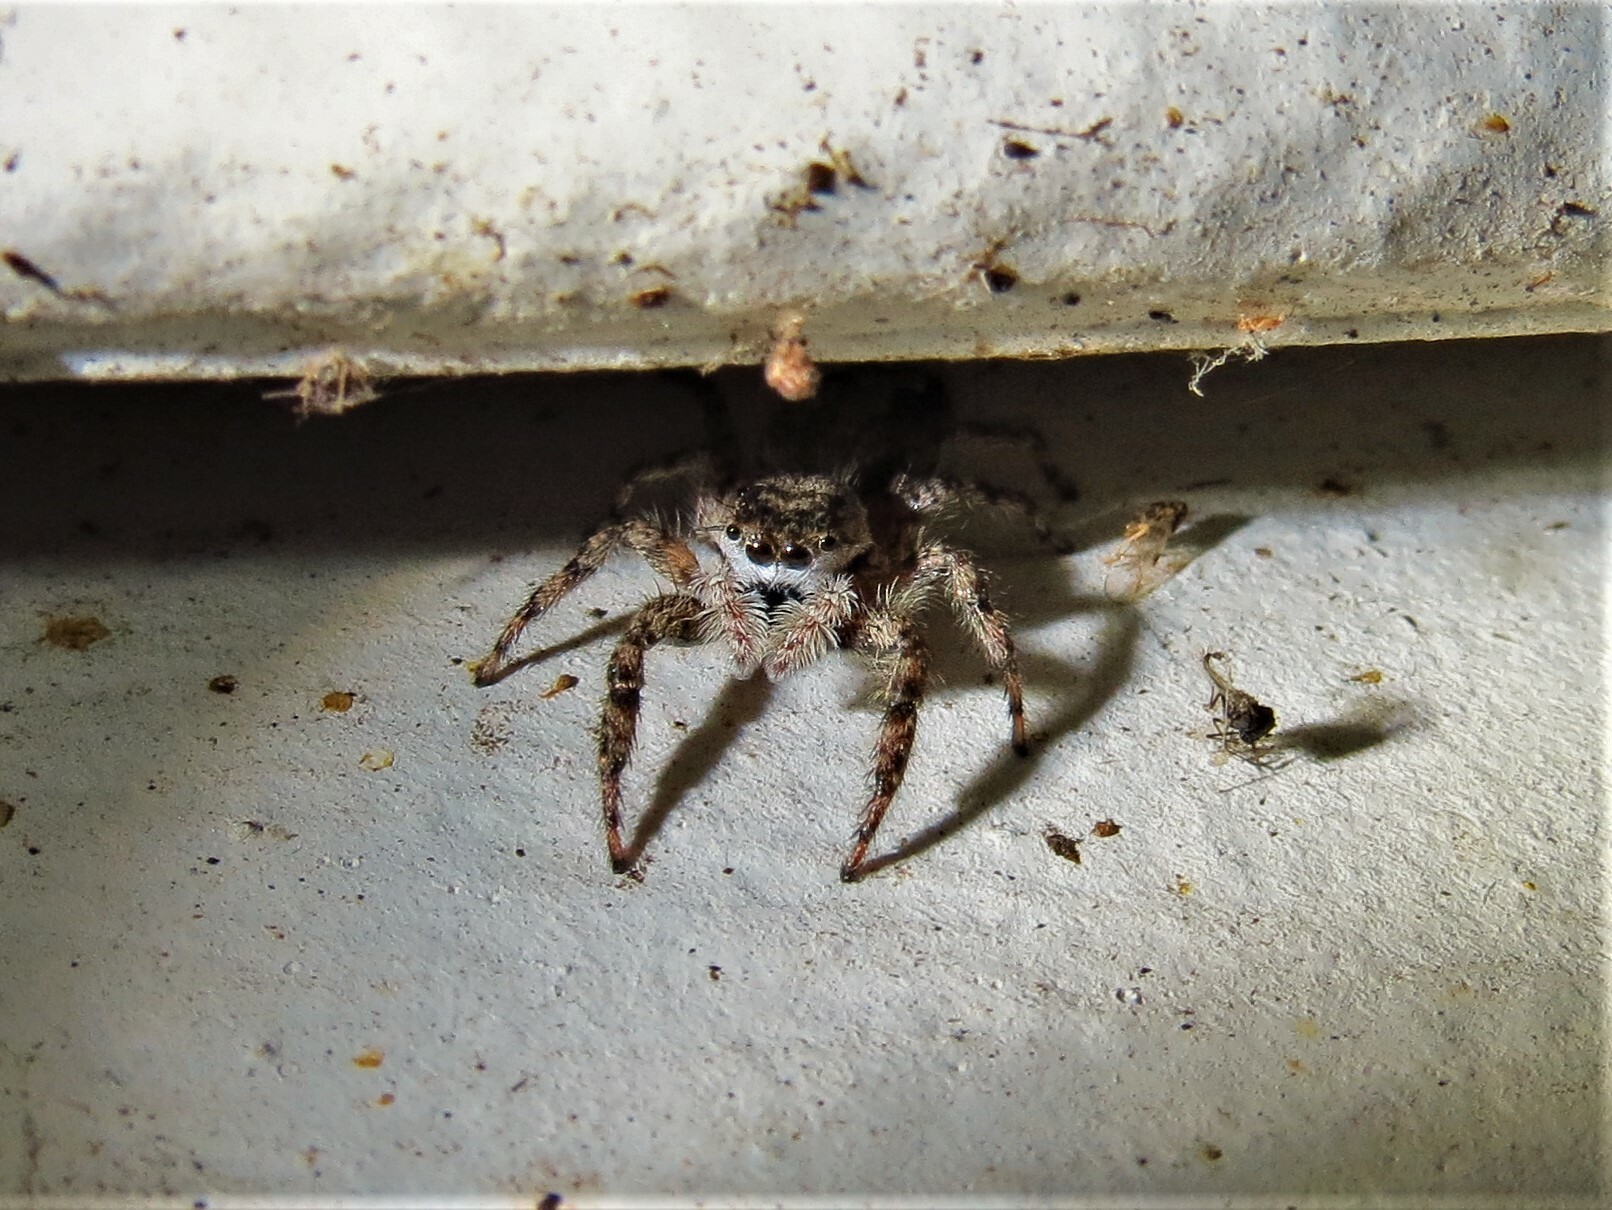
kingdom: Animalia
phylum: Arthropoda
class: Arachnida
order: Araneae
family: Salticidae
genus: Platycryptus
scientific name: Platycryptus undatus
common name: Tan jumping spider
